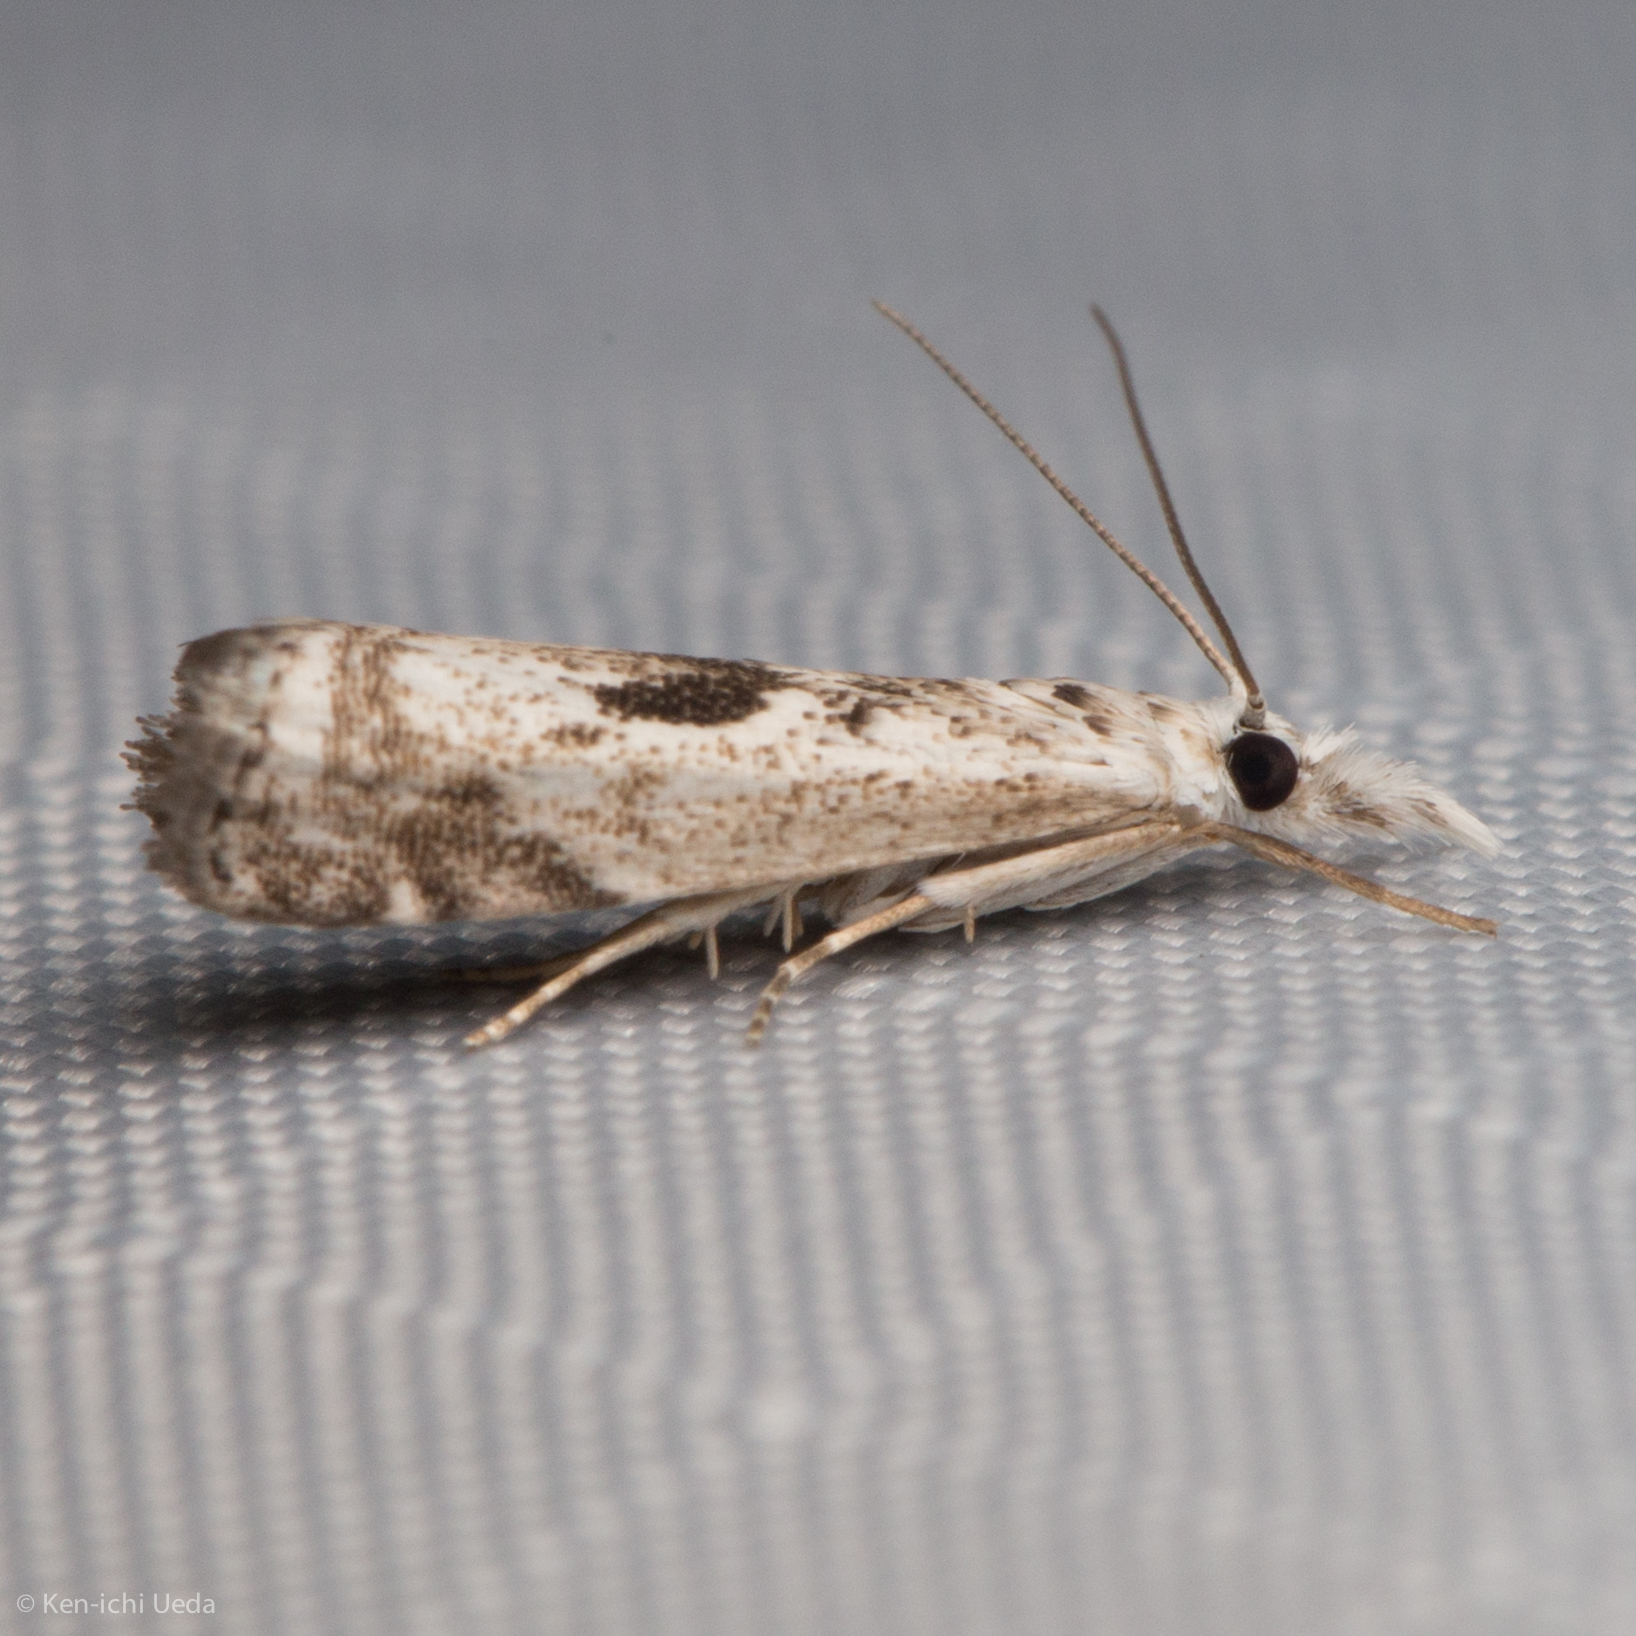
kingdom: Animalia
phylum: Arthropoda
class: Insecta
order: Lepidoptera
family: Crambidae
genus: Microcrambus
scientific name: Microcrambus immunellus
